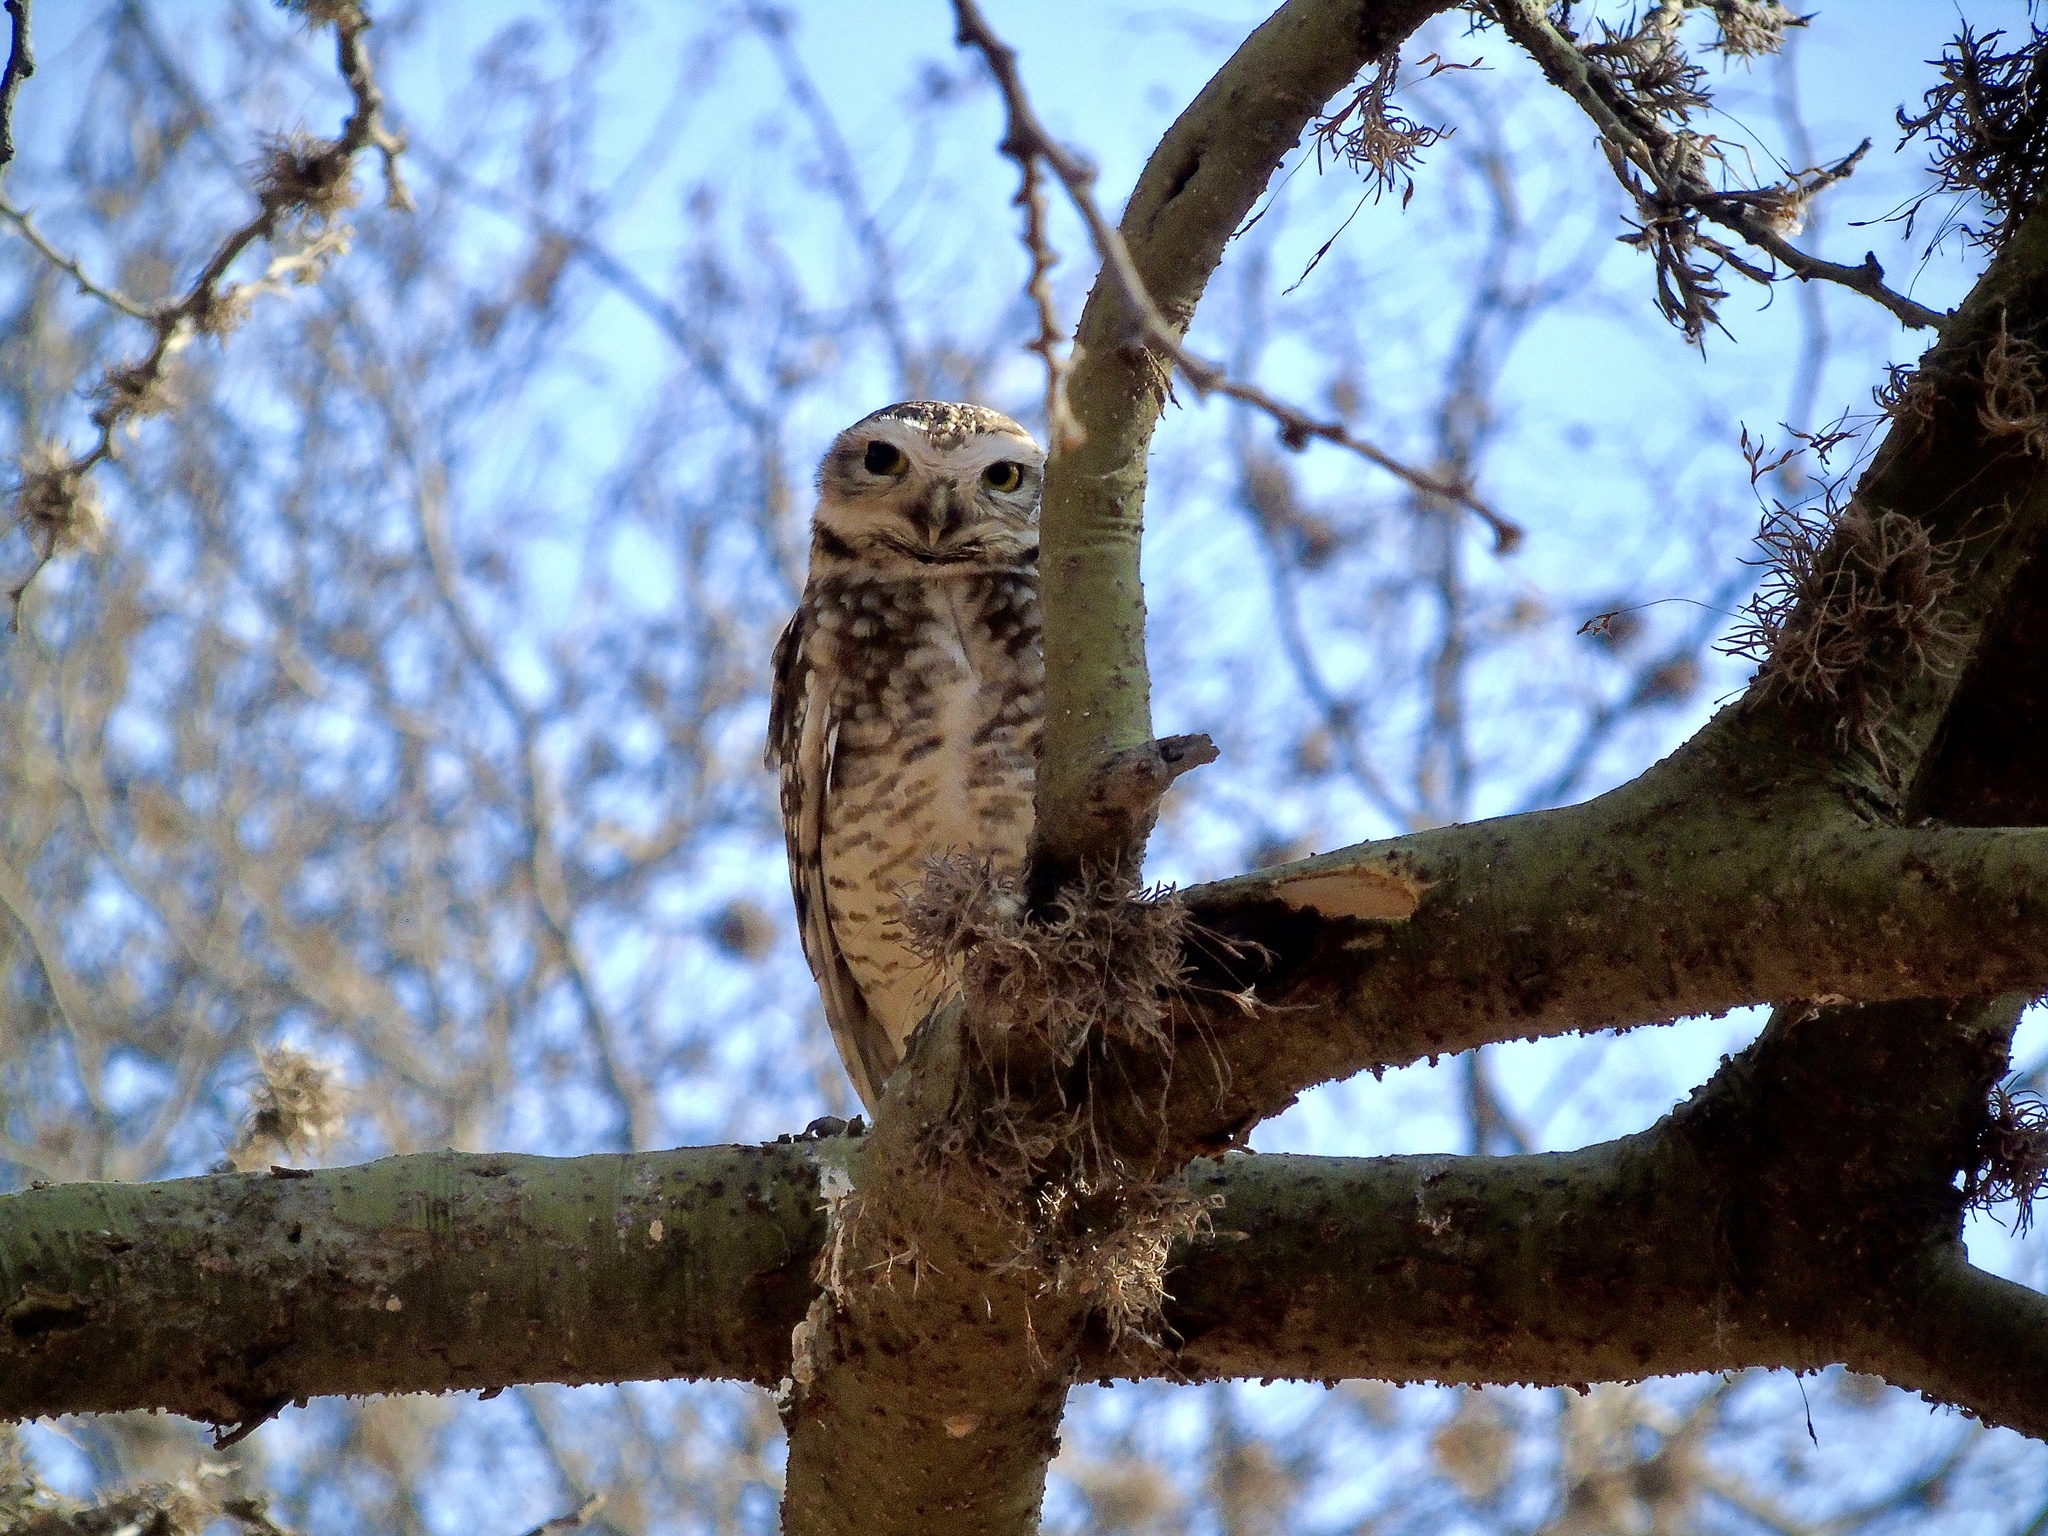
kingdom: Animalia
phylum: Chordata
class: Aves
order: Strigiformes
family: Strigidae
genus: Athene
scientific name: Athene cunicularia
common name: Burrowing owl
